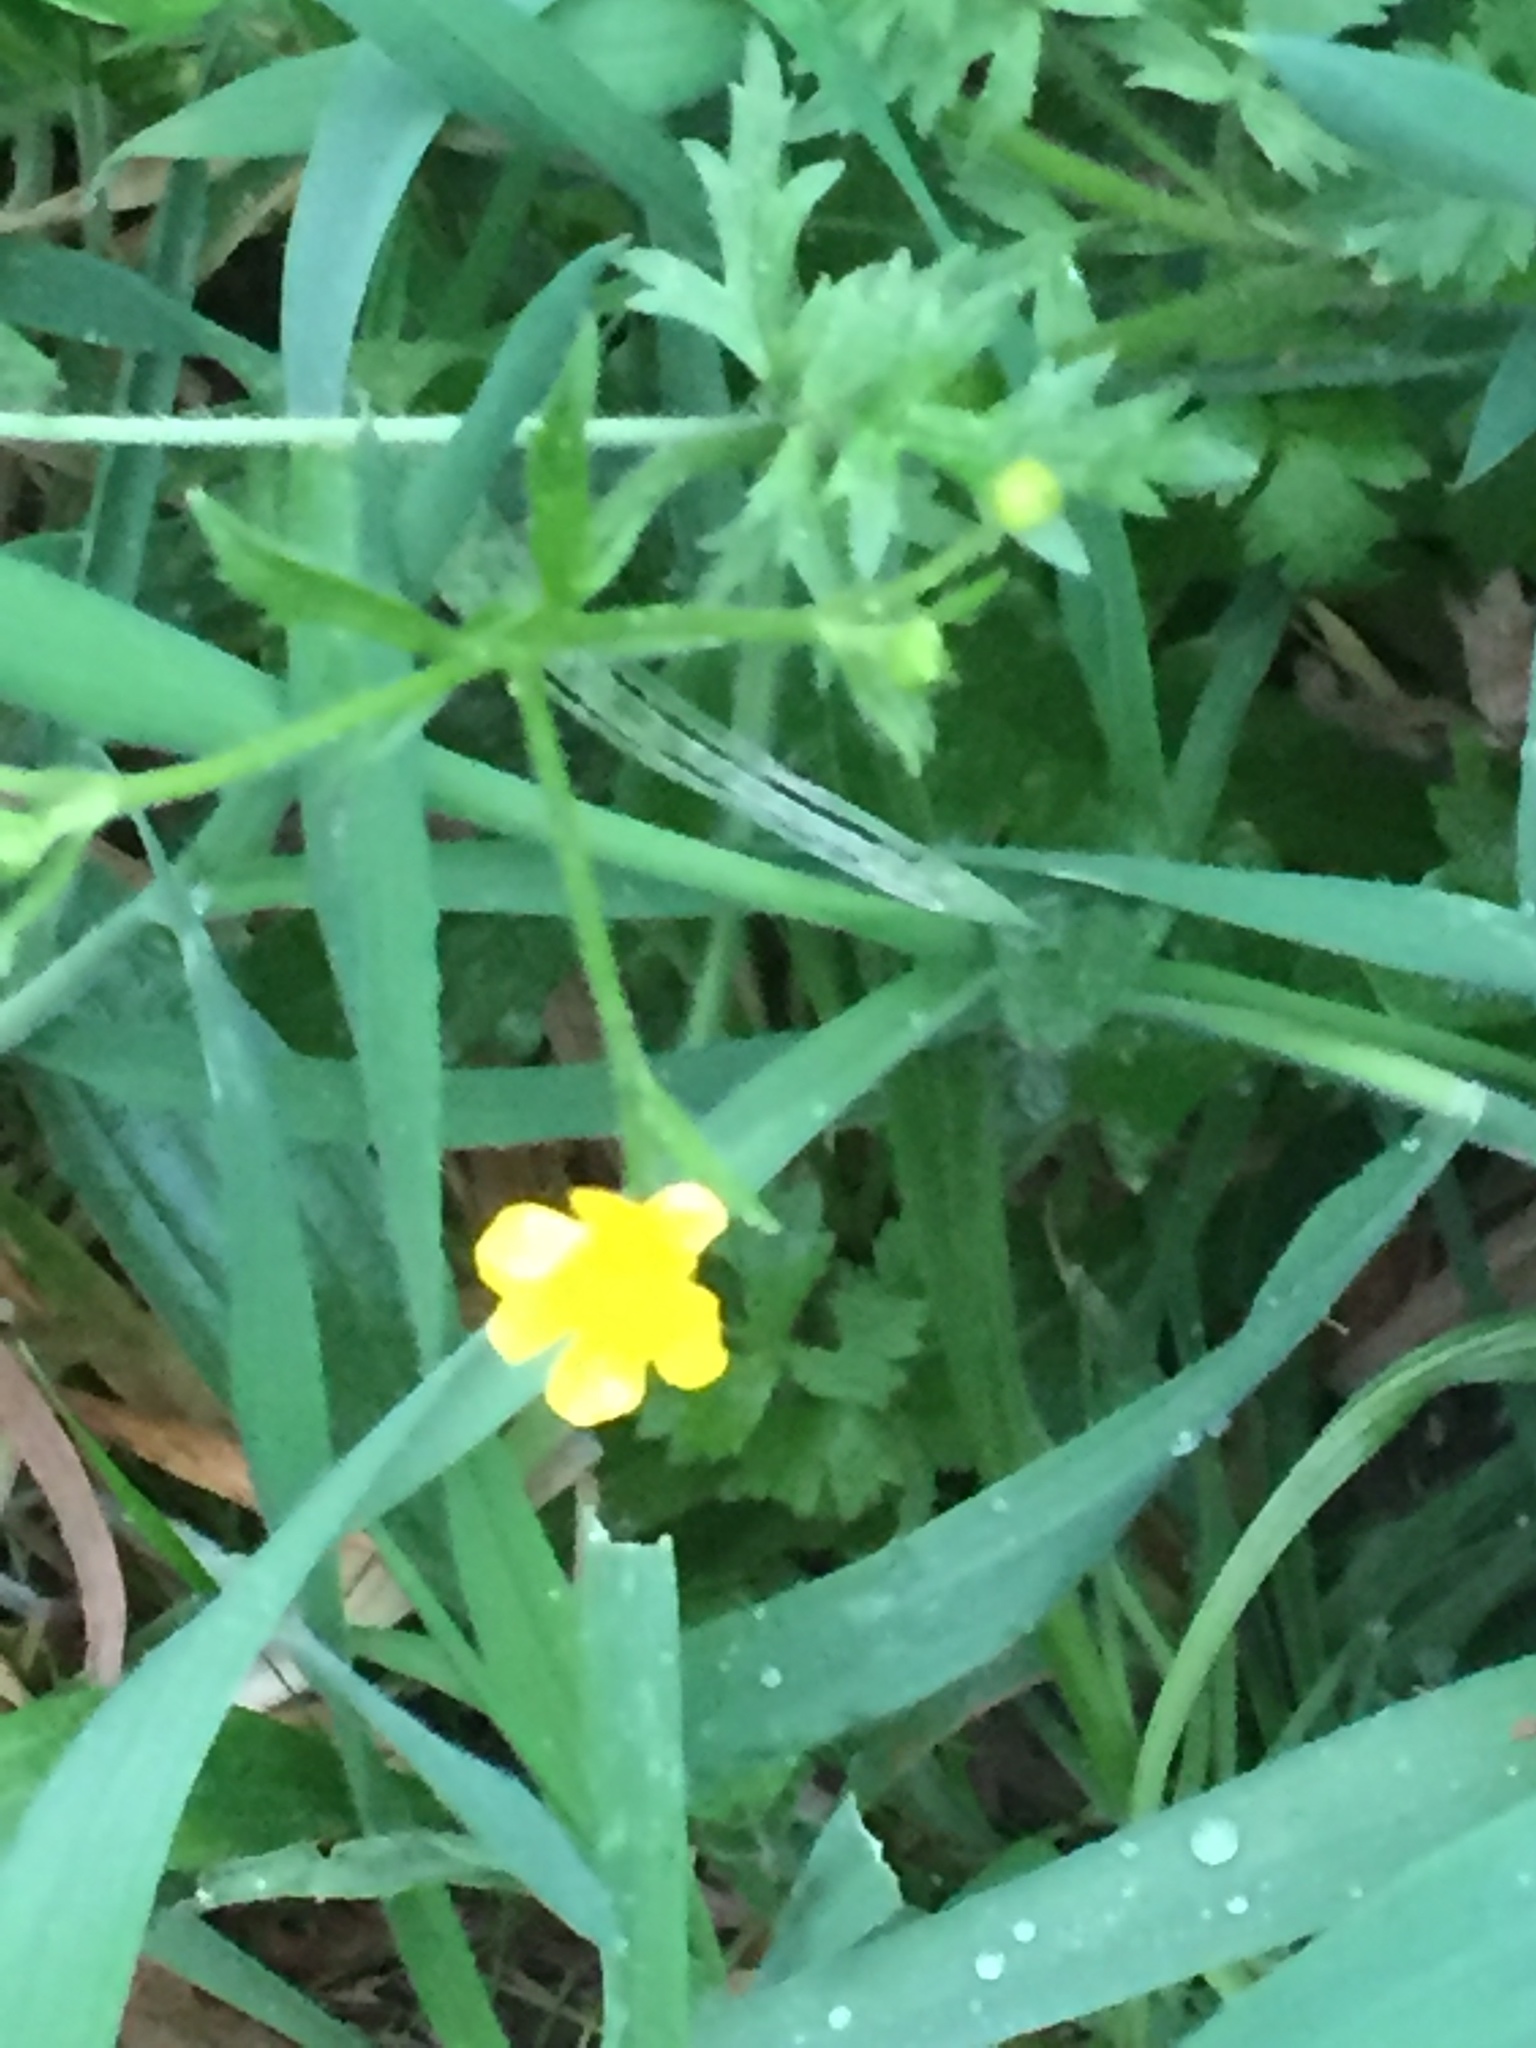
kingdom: Plantae
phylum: Tracheophyta
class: Magnoliopsida
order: Ranunculales
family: Ranunculaceae
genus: Ranunculus
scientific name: Ranunculus multifidus
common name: Wild buttercup
